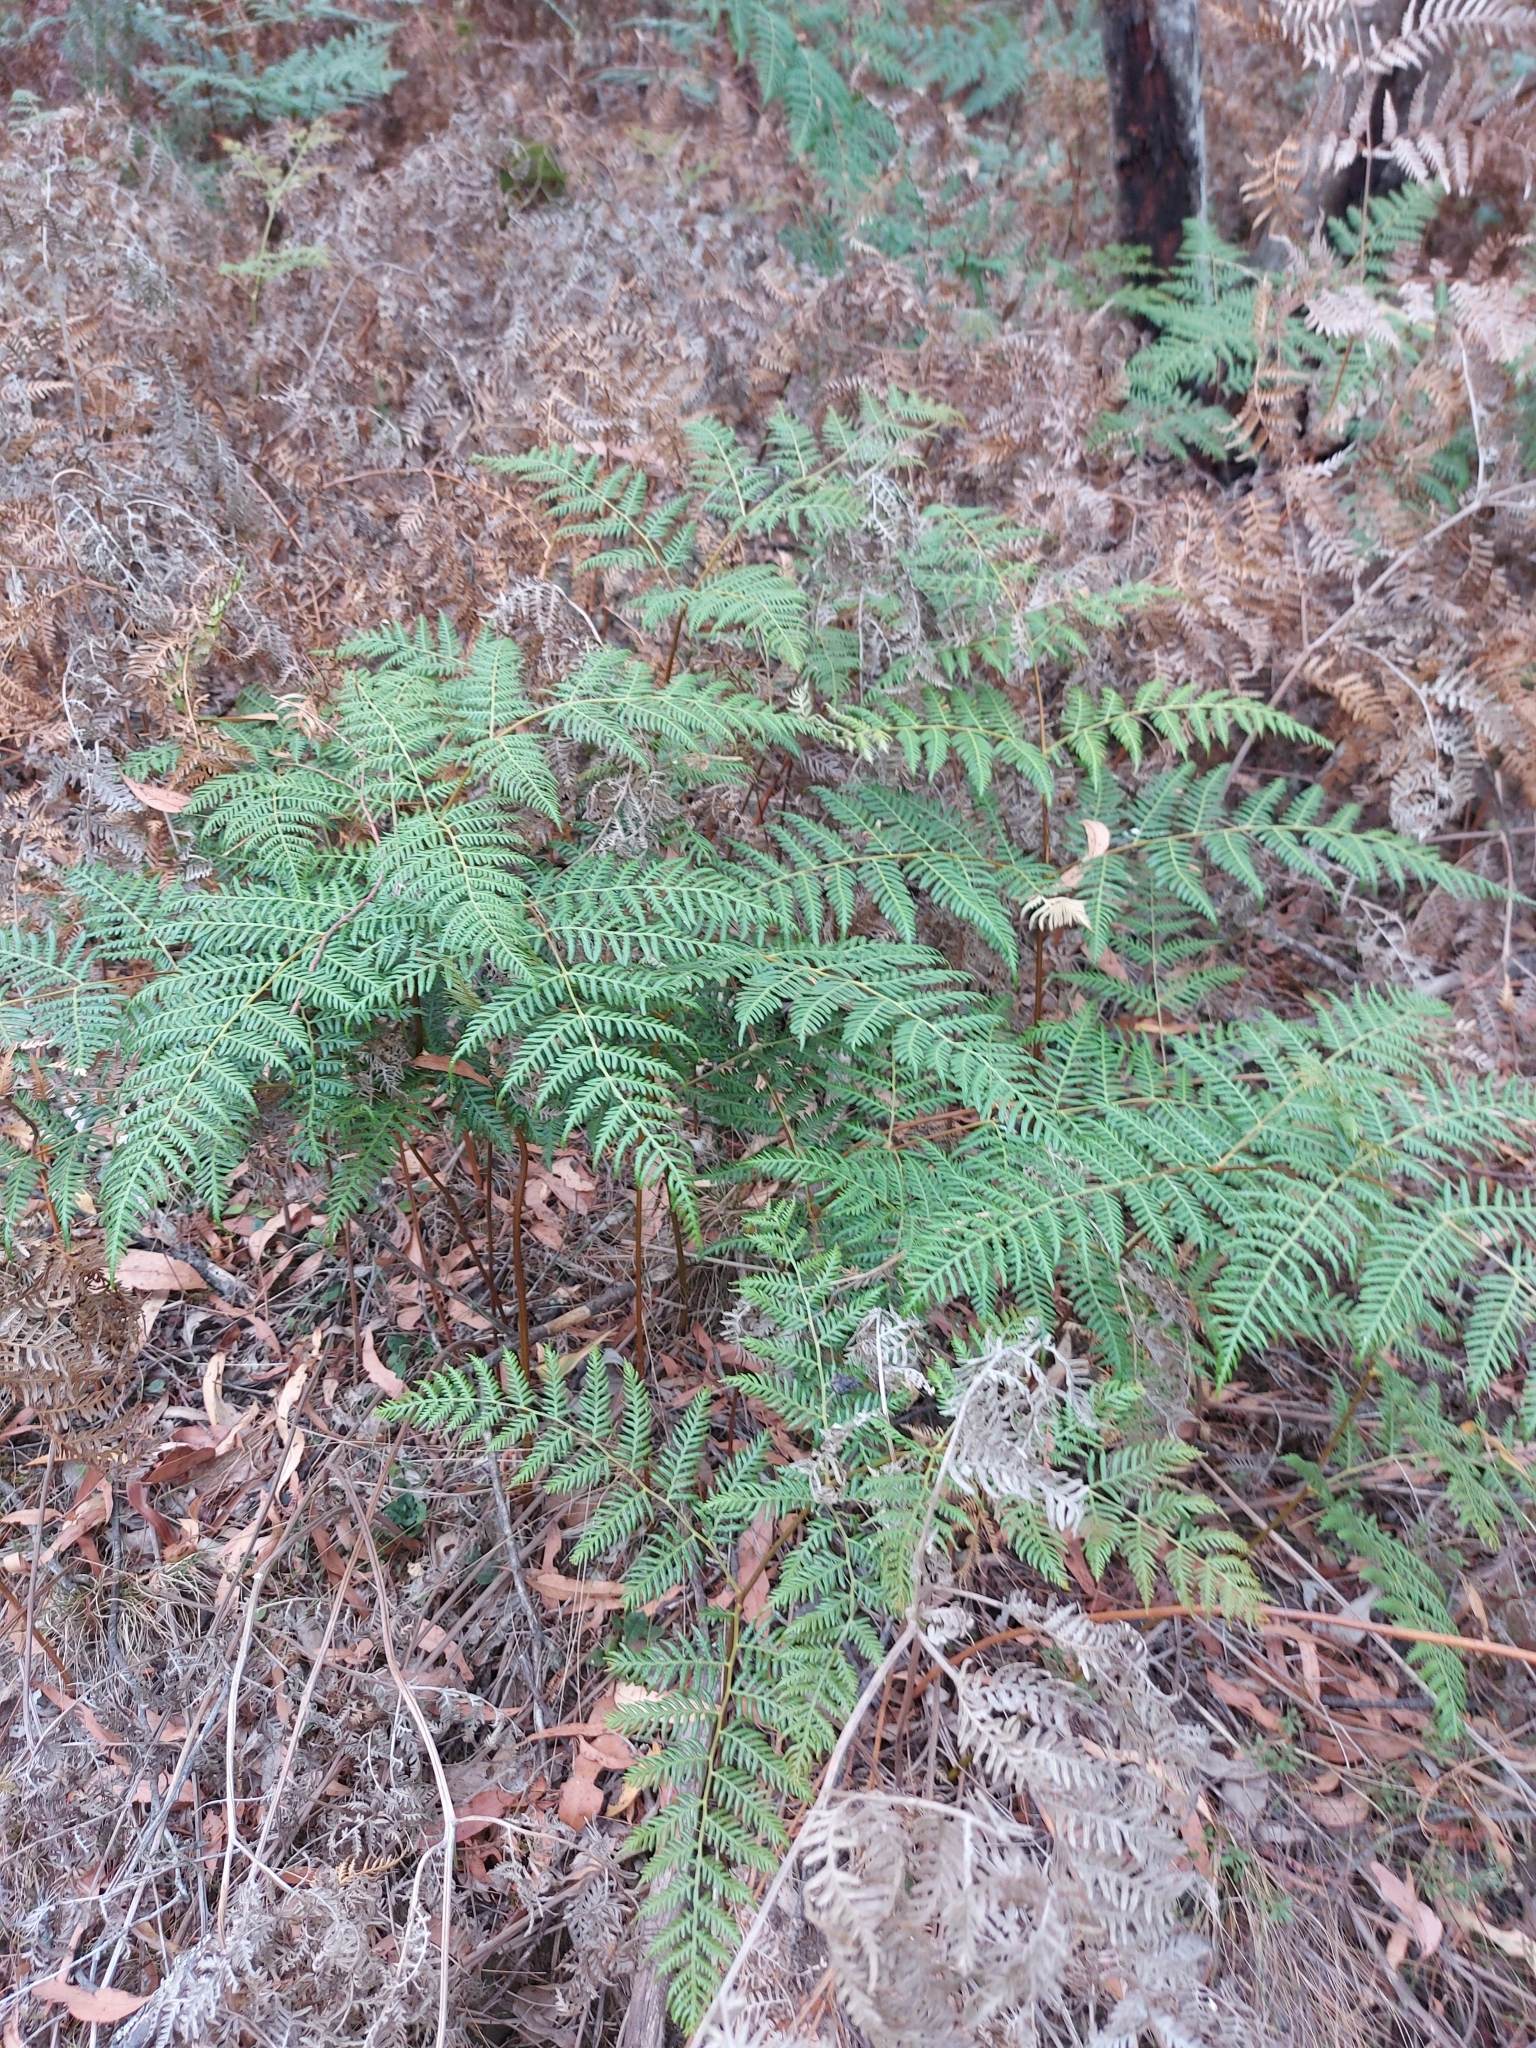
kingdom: Plantae
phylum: Tracheophyta
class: Polypodiopsida
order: Polypodiales
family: Dennstaedtiaceae
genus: Pteridium
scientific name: Pteridium esculentum
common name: Bracken fern
